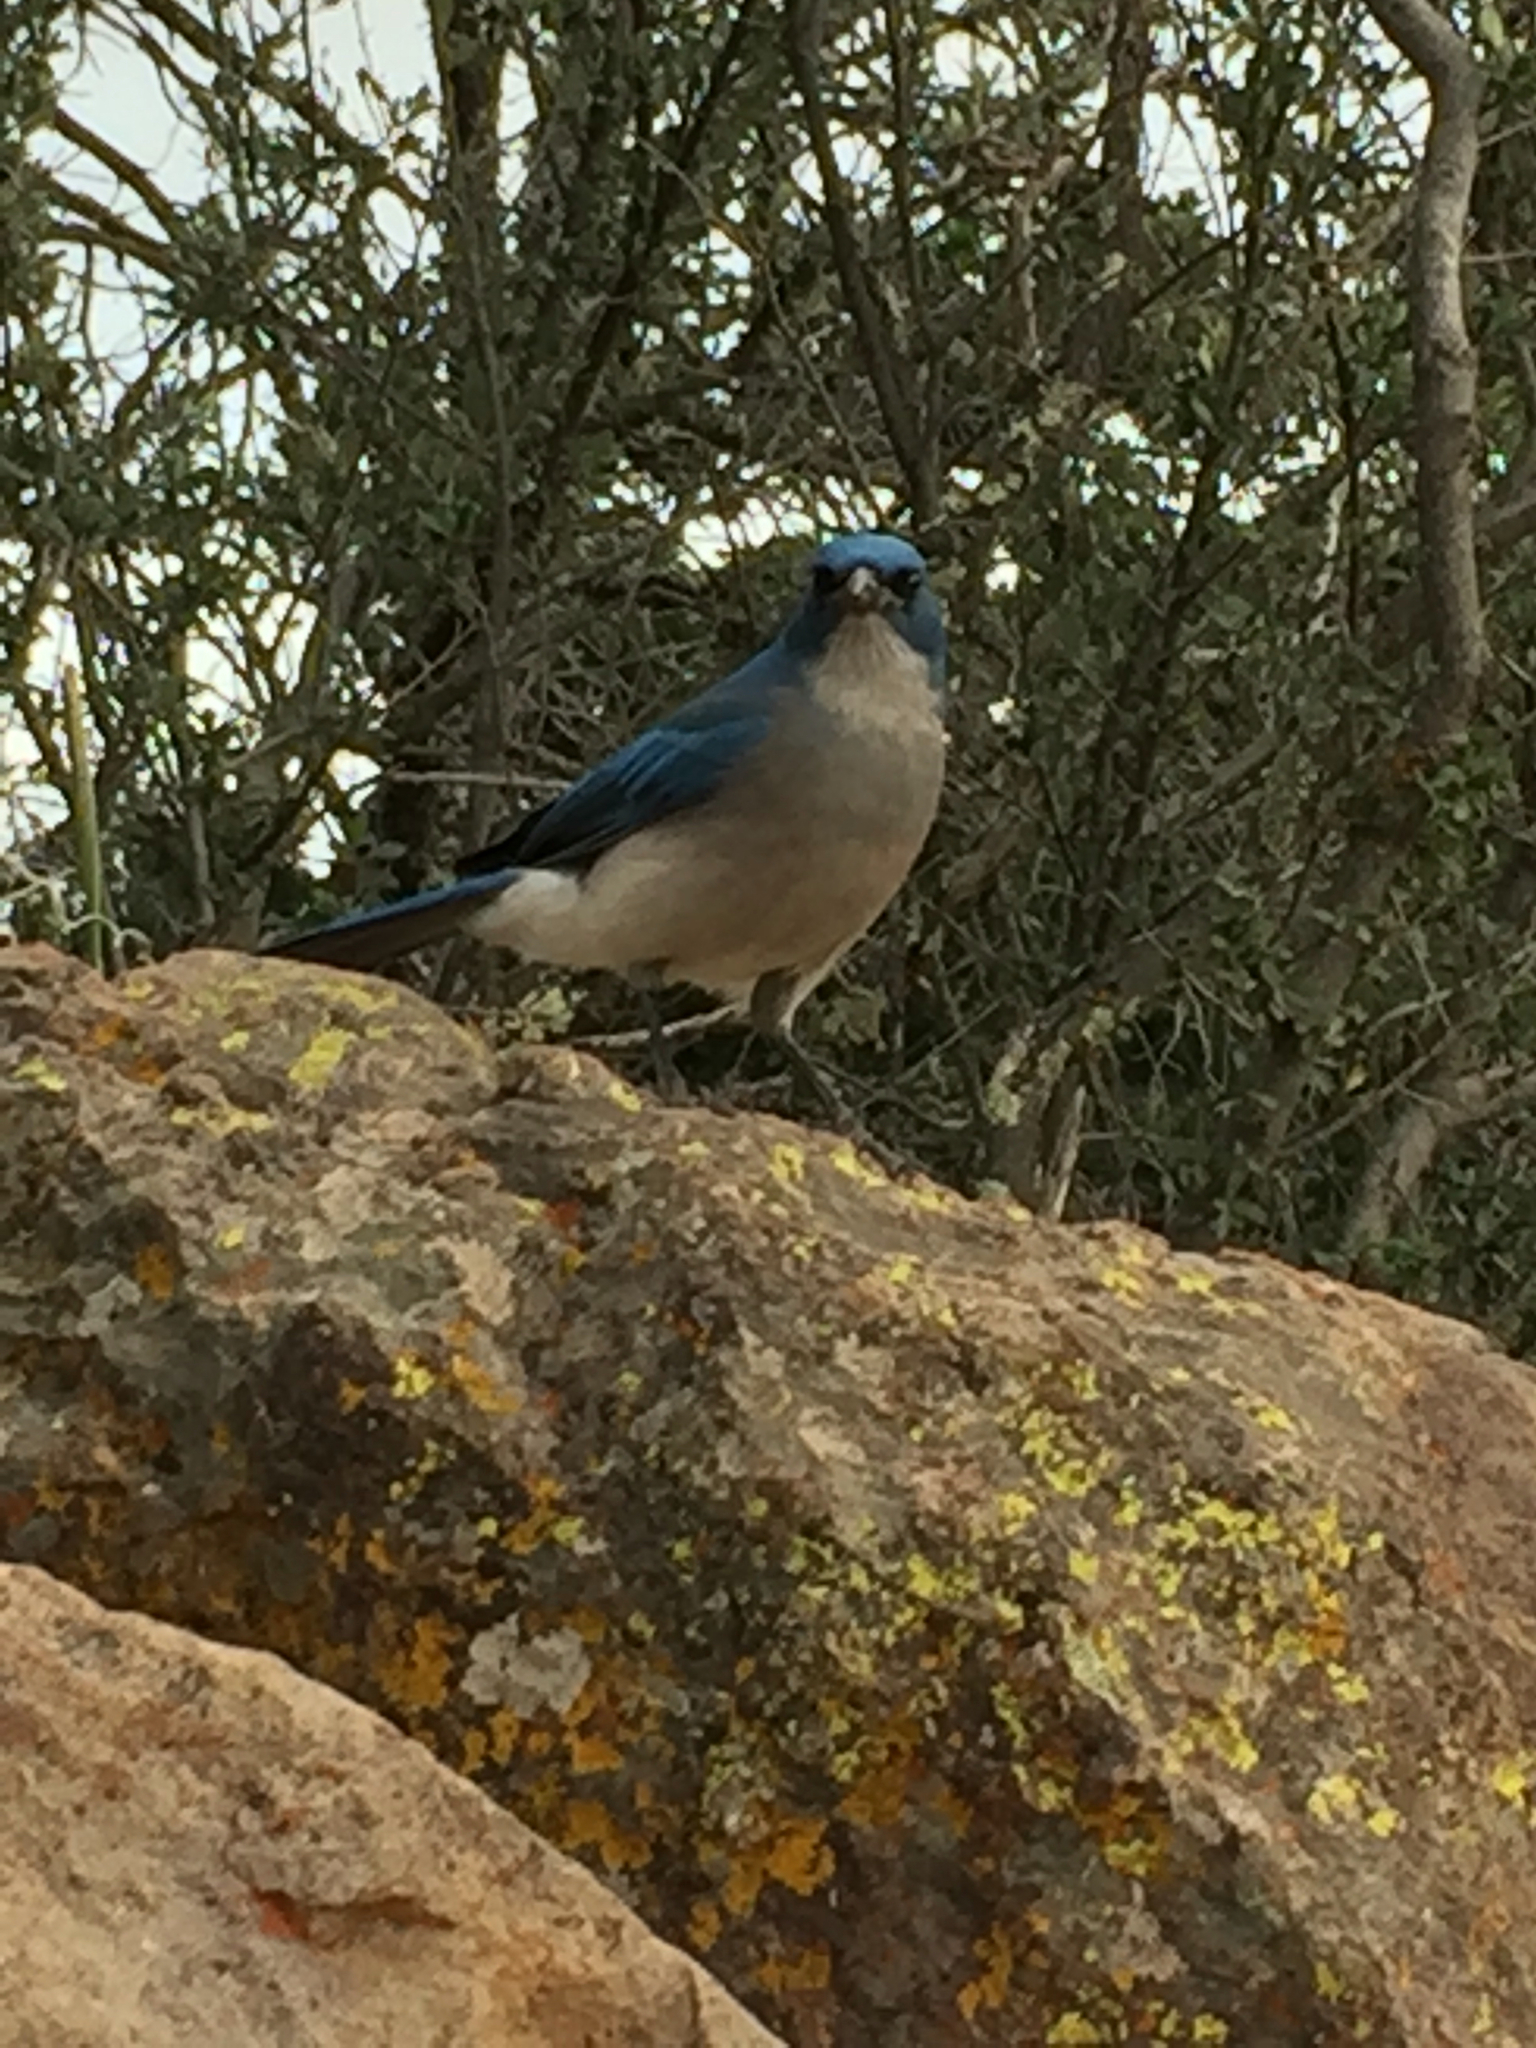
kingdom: Animalia
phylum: Chordata
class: Aves
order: Passeriformes
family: Corvidae
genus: Aphelocoma
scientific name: Aphelocoma wollweberi
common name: Mexican jay
